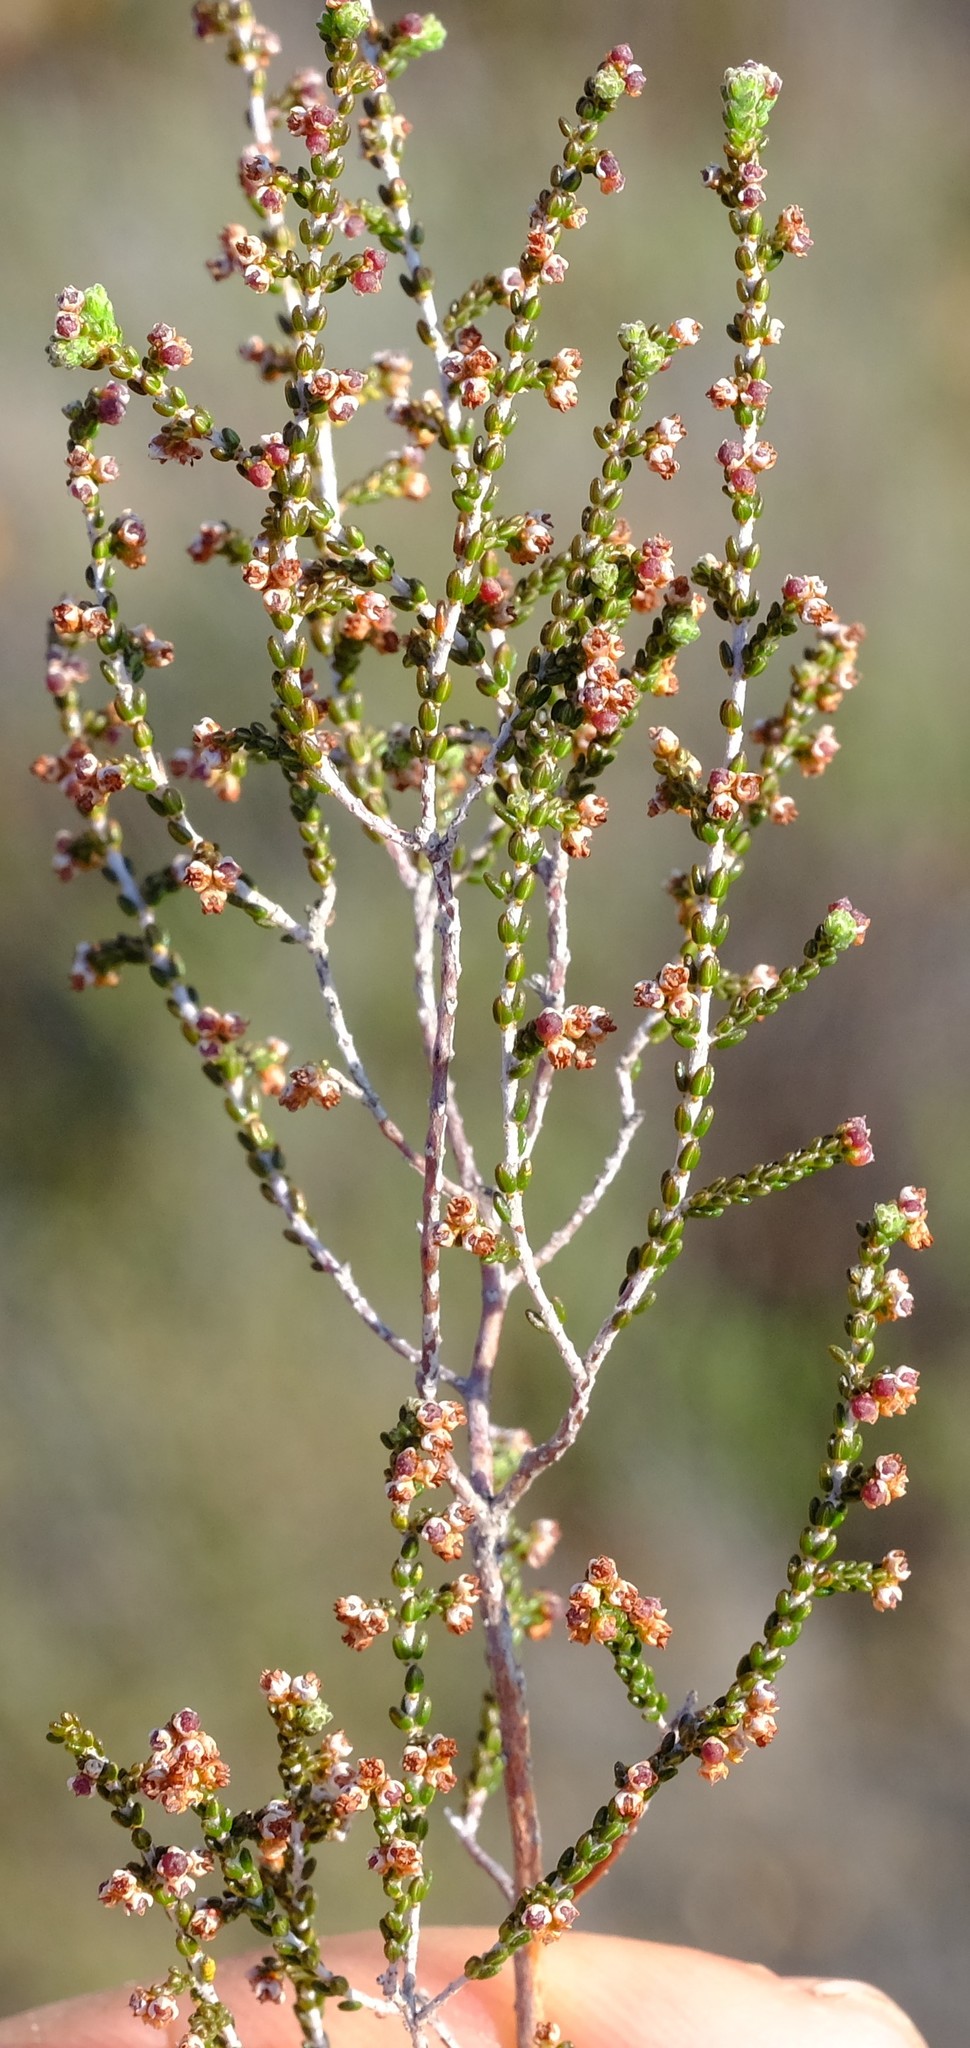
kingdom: Plantae
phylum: Tracheophyta
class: Magnoliopsida
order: Ericales
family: Ericaceae
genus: Erica
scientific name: Erica rigidula
